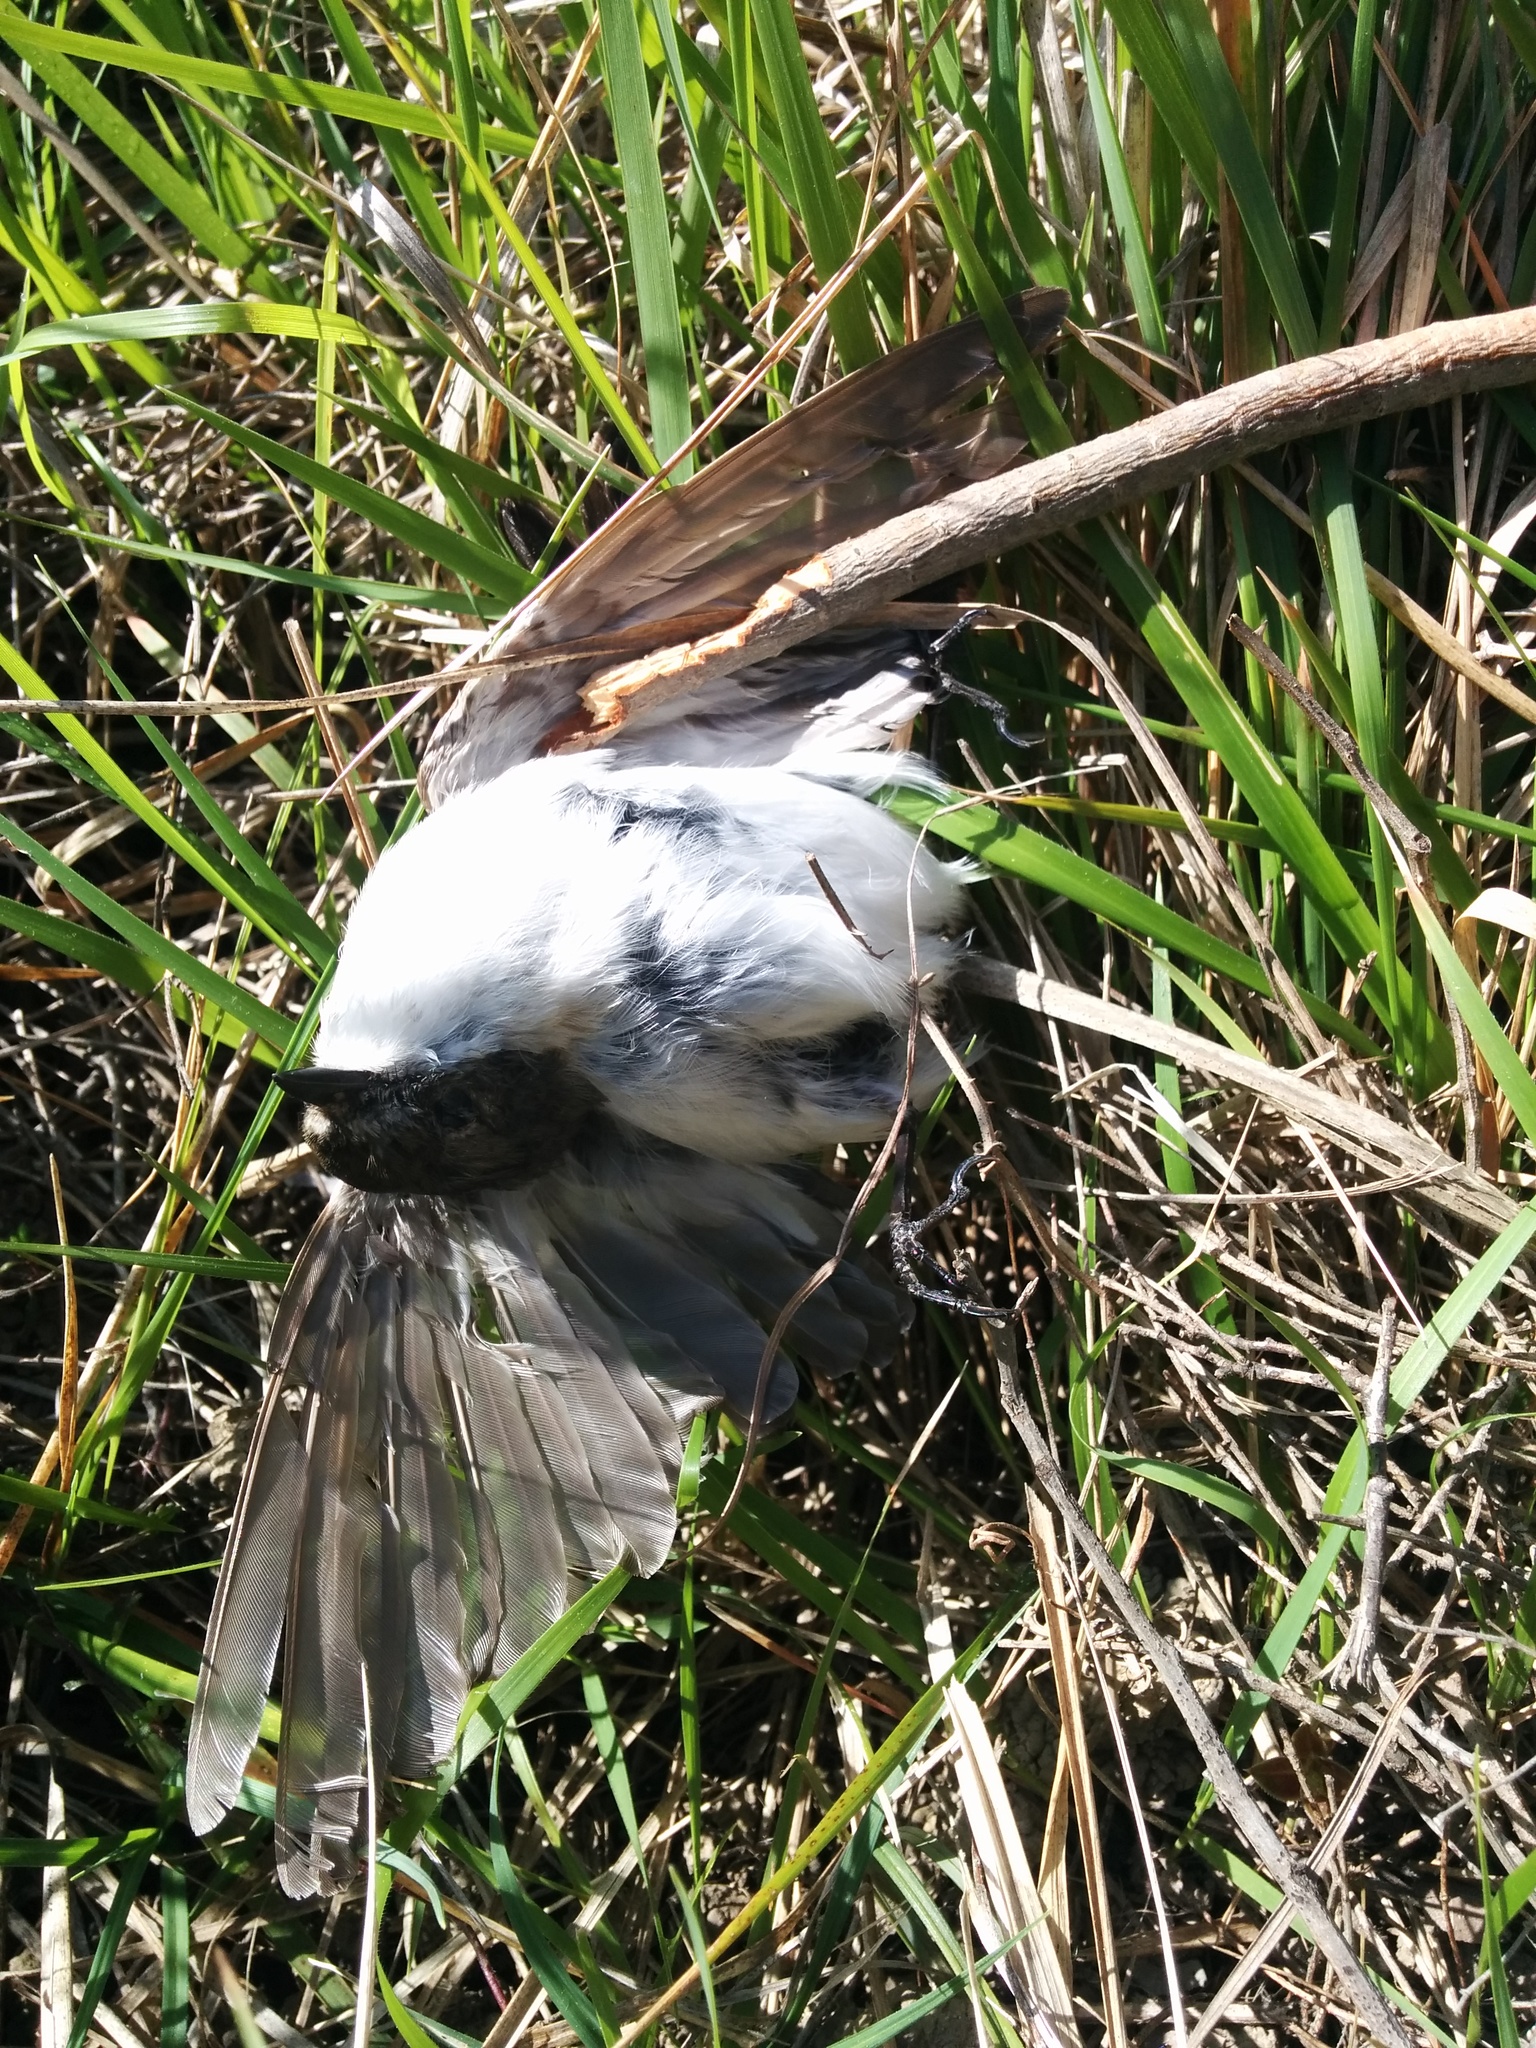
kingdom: Animalia
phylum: Chordata
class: Aves
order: Passeriformes
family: Muscicapidae
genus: Ficedula
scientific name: Ficedula hypoleuca
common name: European pied flycatcher
